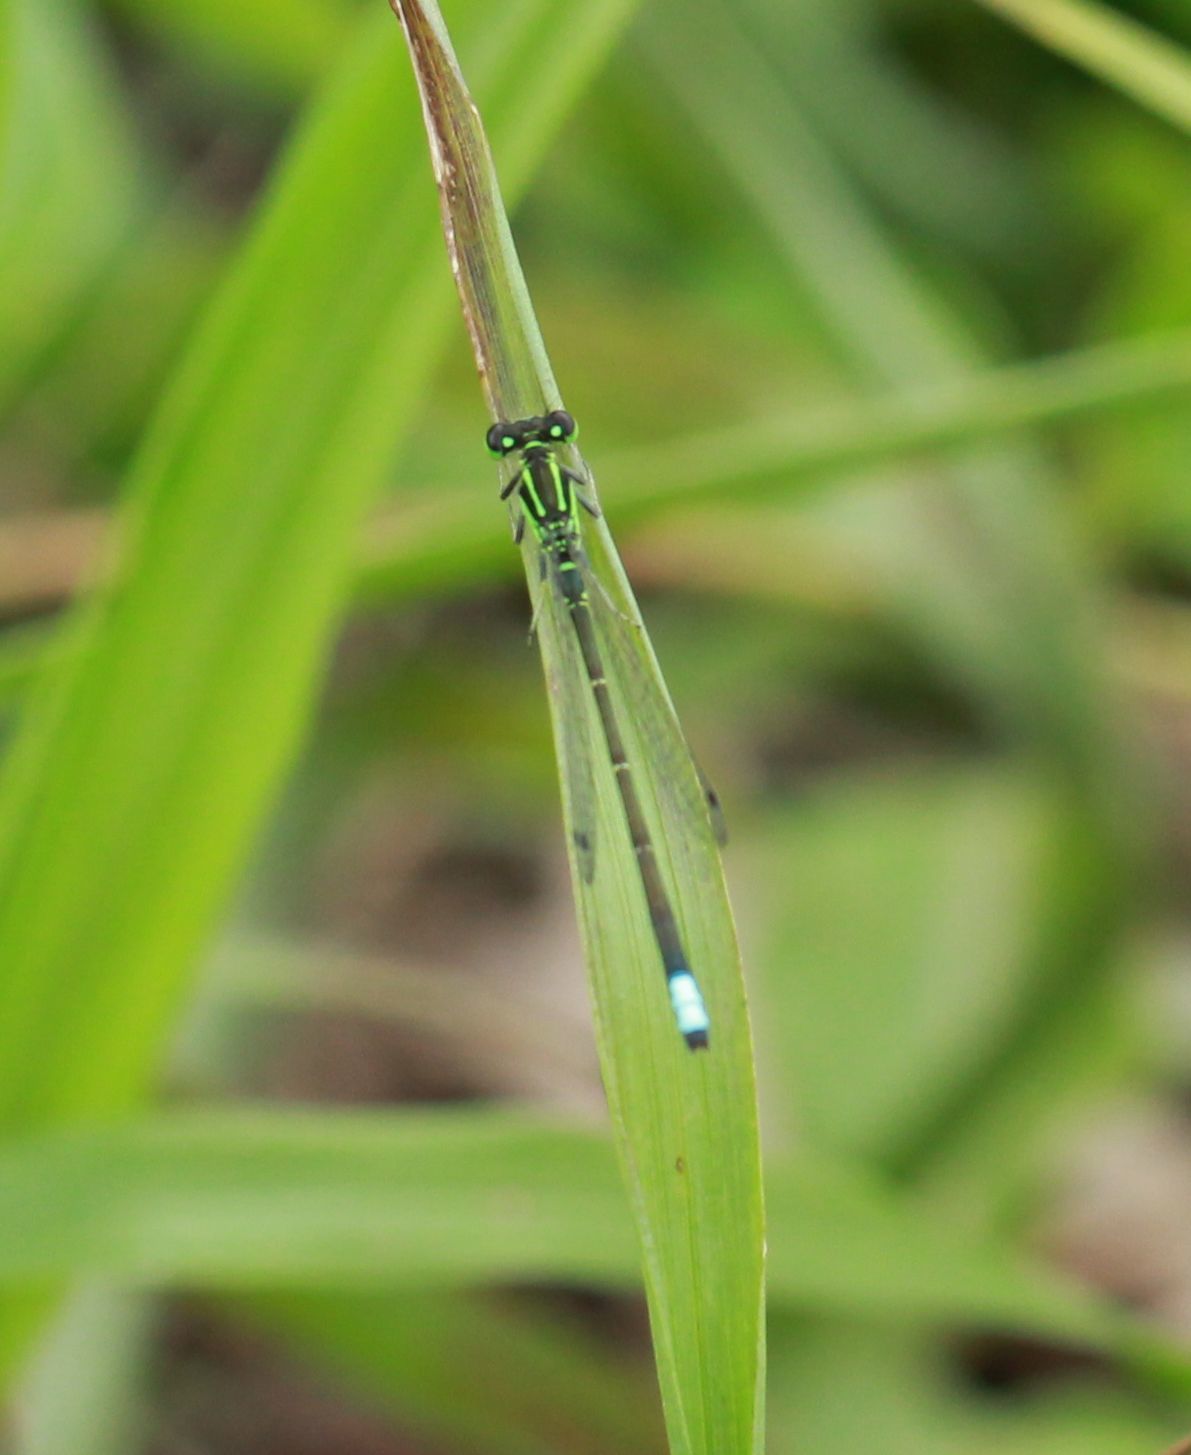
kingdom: Animalia
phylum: Arthropoda
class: Insecta
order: Odonata
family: Coenagrionidae
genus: Ischnura
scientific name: Ischnura verticalis
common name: Eastern forktail
